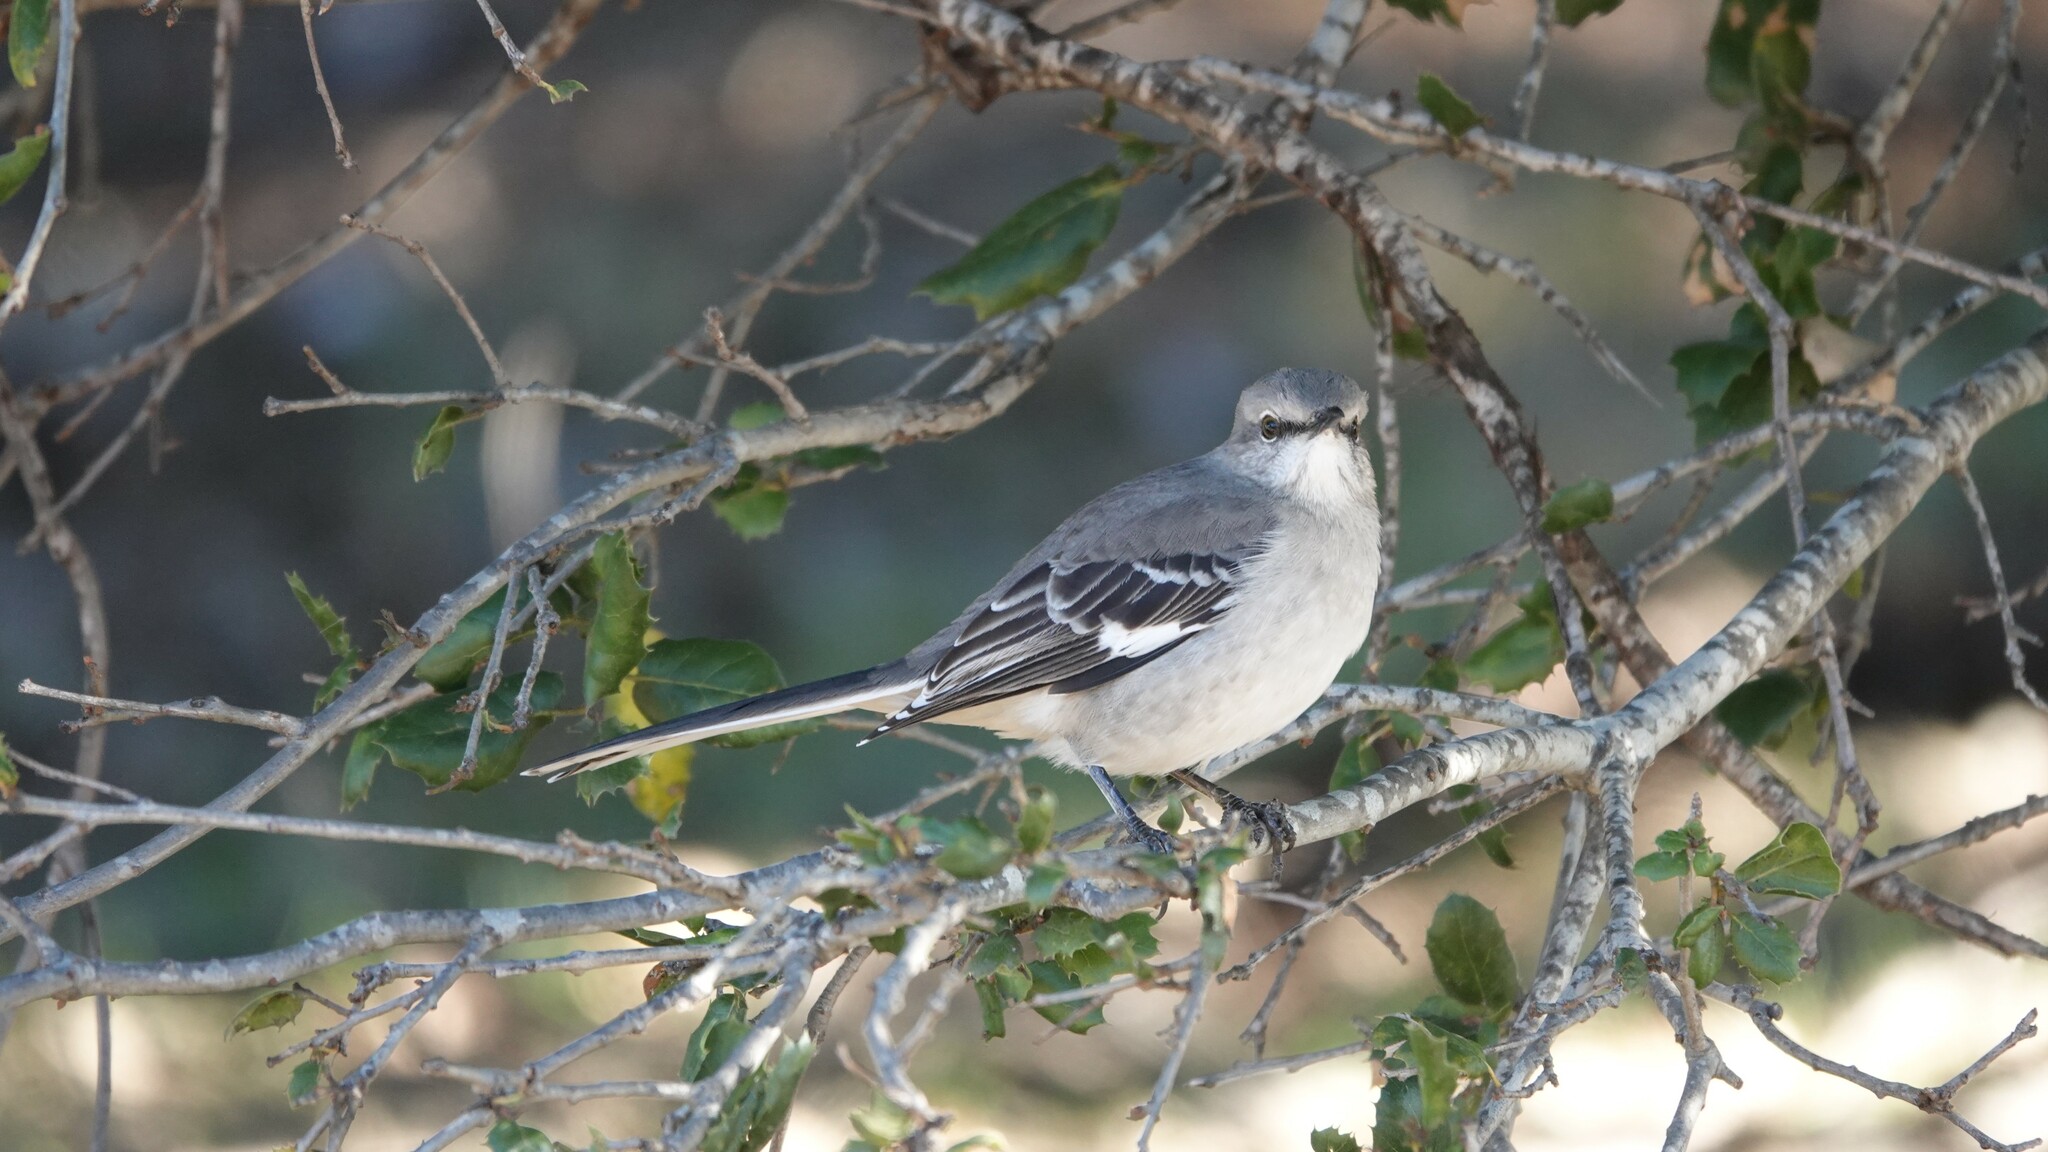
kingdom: Animalia
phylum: Chordata
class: Aves
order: Passeriformes
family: Mimidae
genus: Mimus
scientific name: Mimus polyglottos
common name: Northern mockingbird
